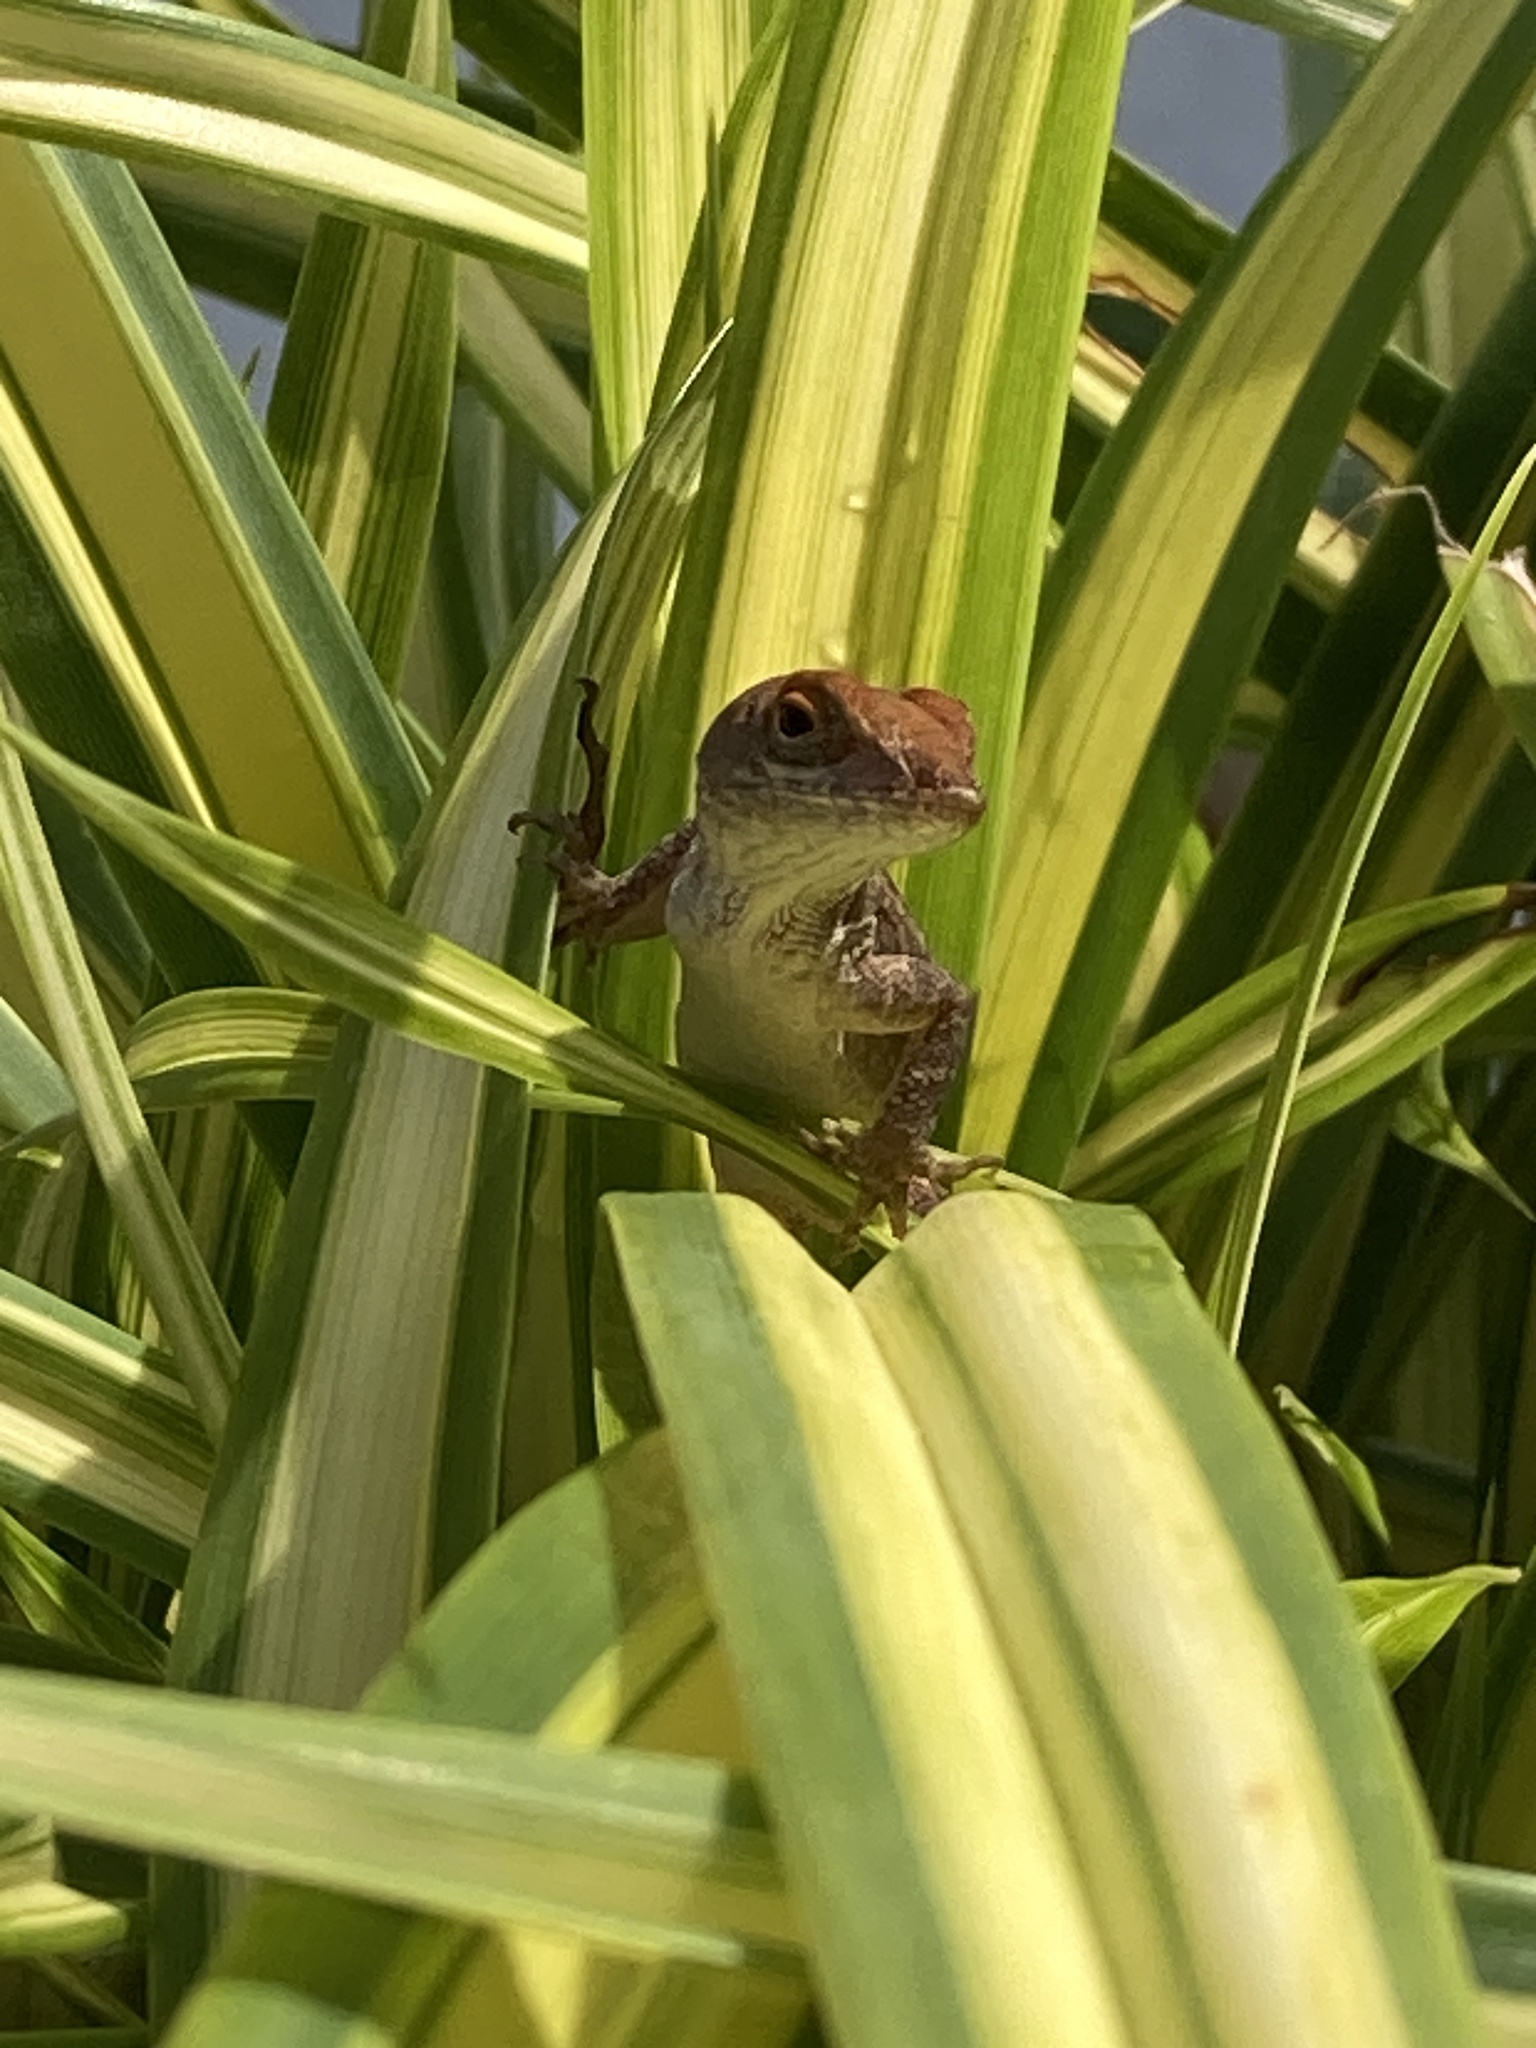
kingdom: Animalia
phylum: Chordata
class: Squamata
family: Dactyloidae
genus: Anolis
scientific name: Anolis sagrei
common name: Brown anole
